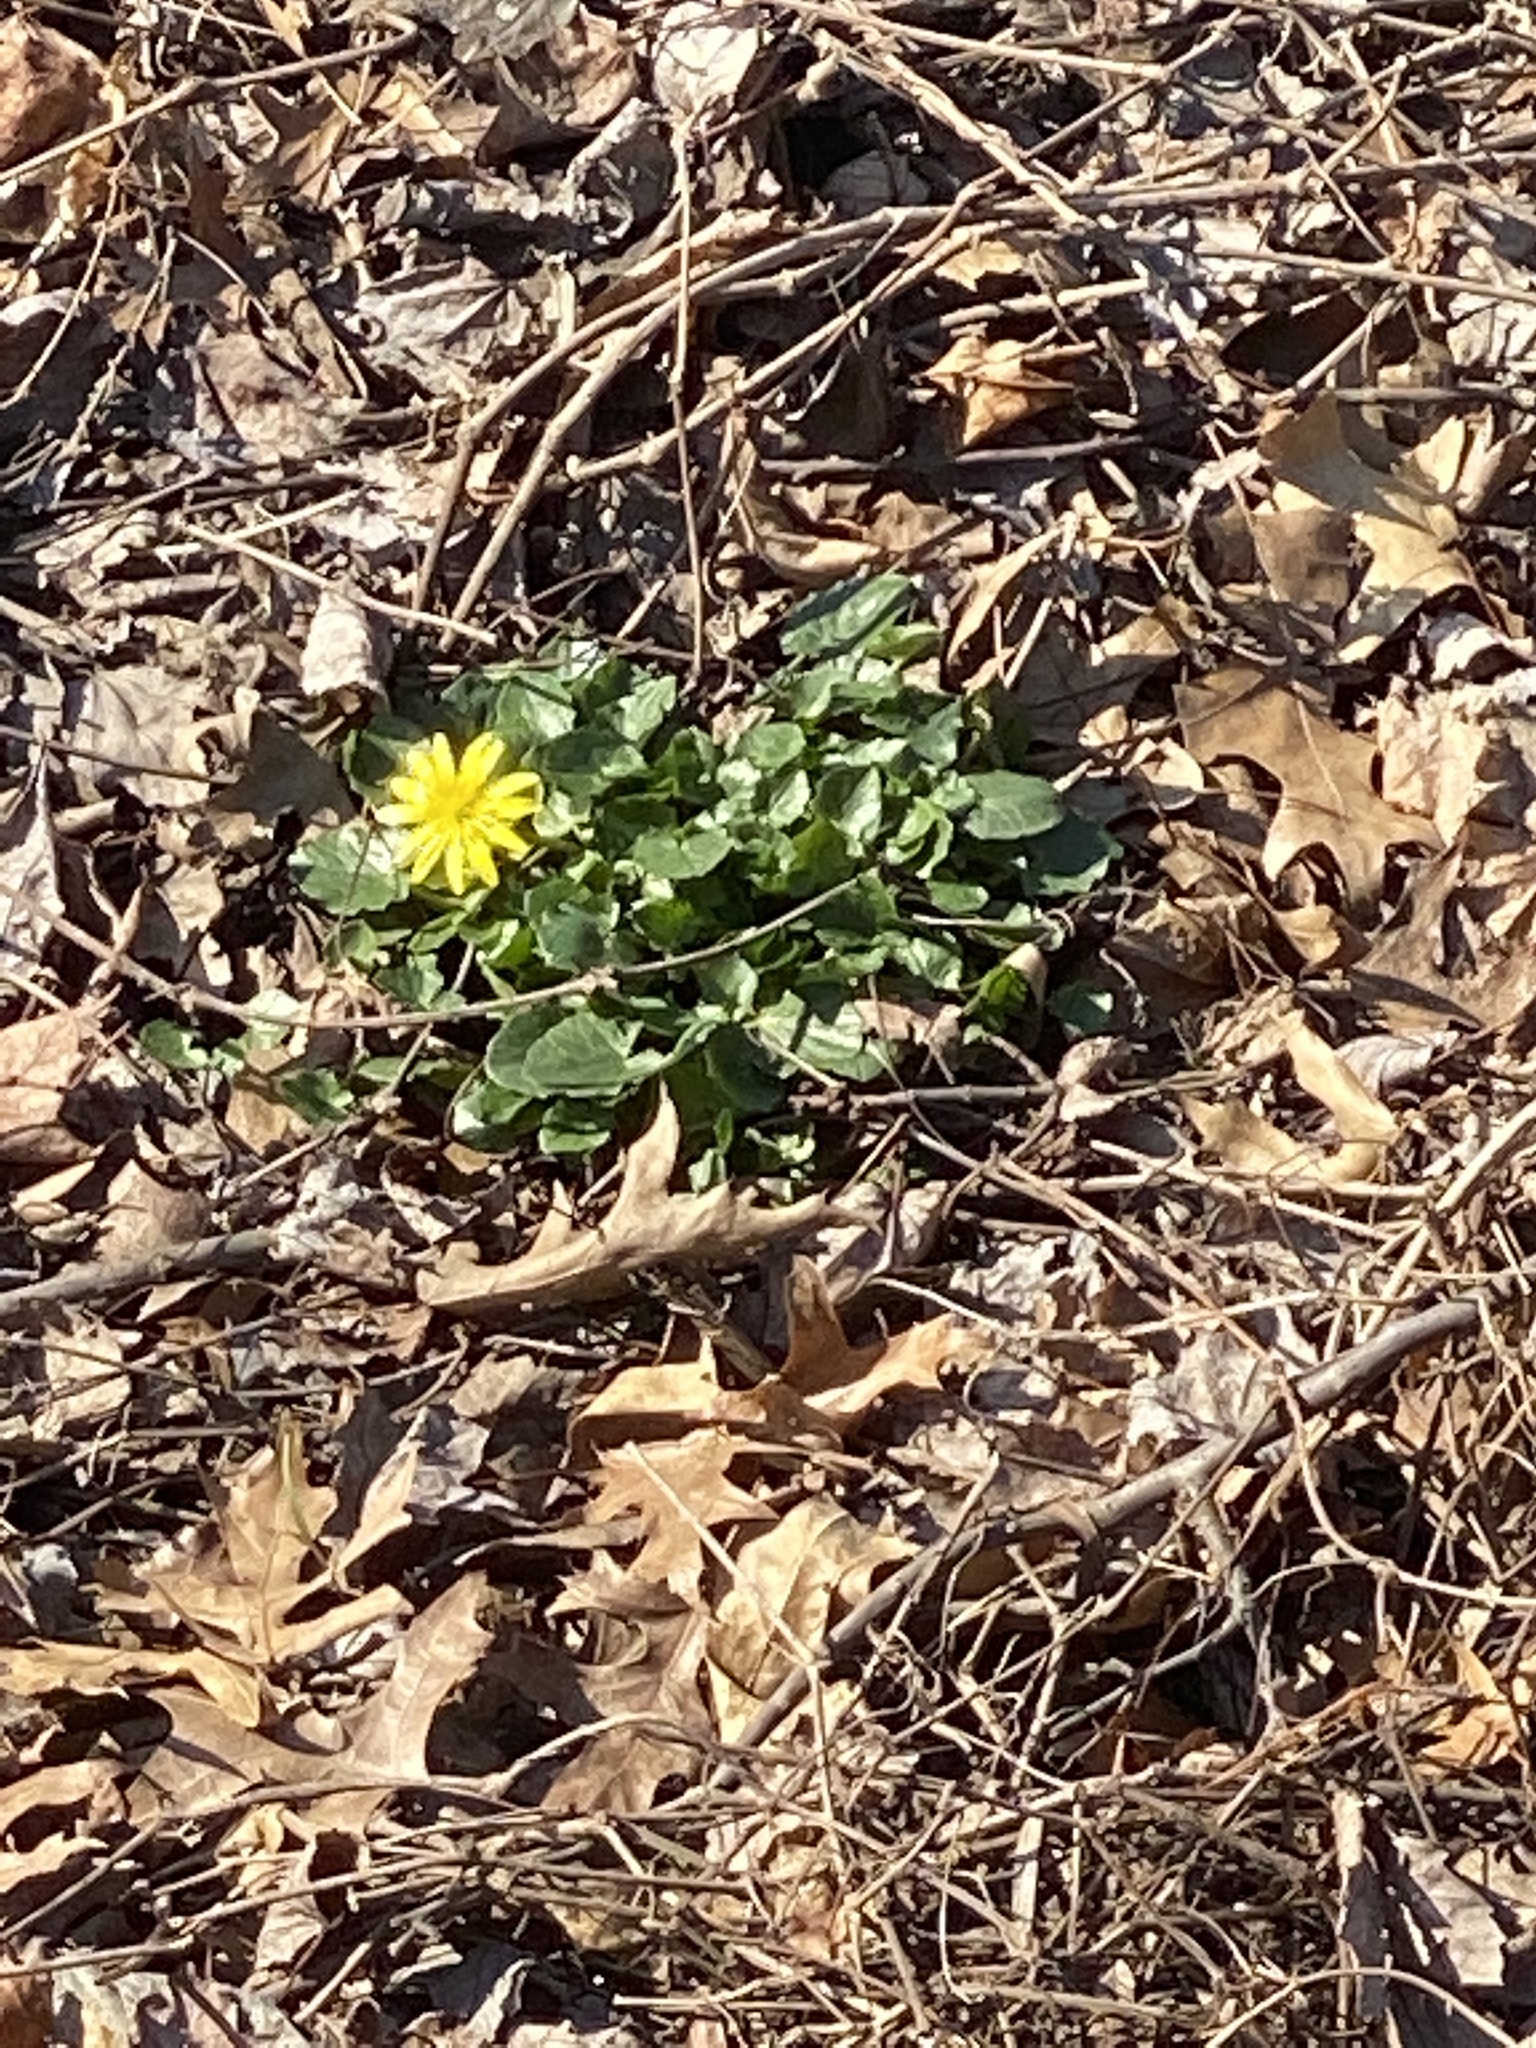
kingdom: Plantae
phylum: Tracheophyta
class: Magnoliopsida
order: Ranunculales
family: Ranunculaceae
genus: Ficaria
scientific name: Ficaria verna
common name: Lesser celandine
